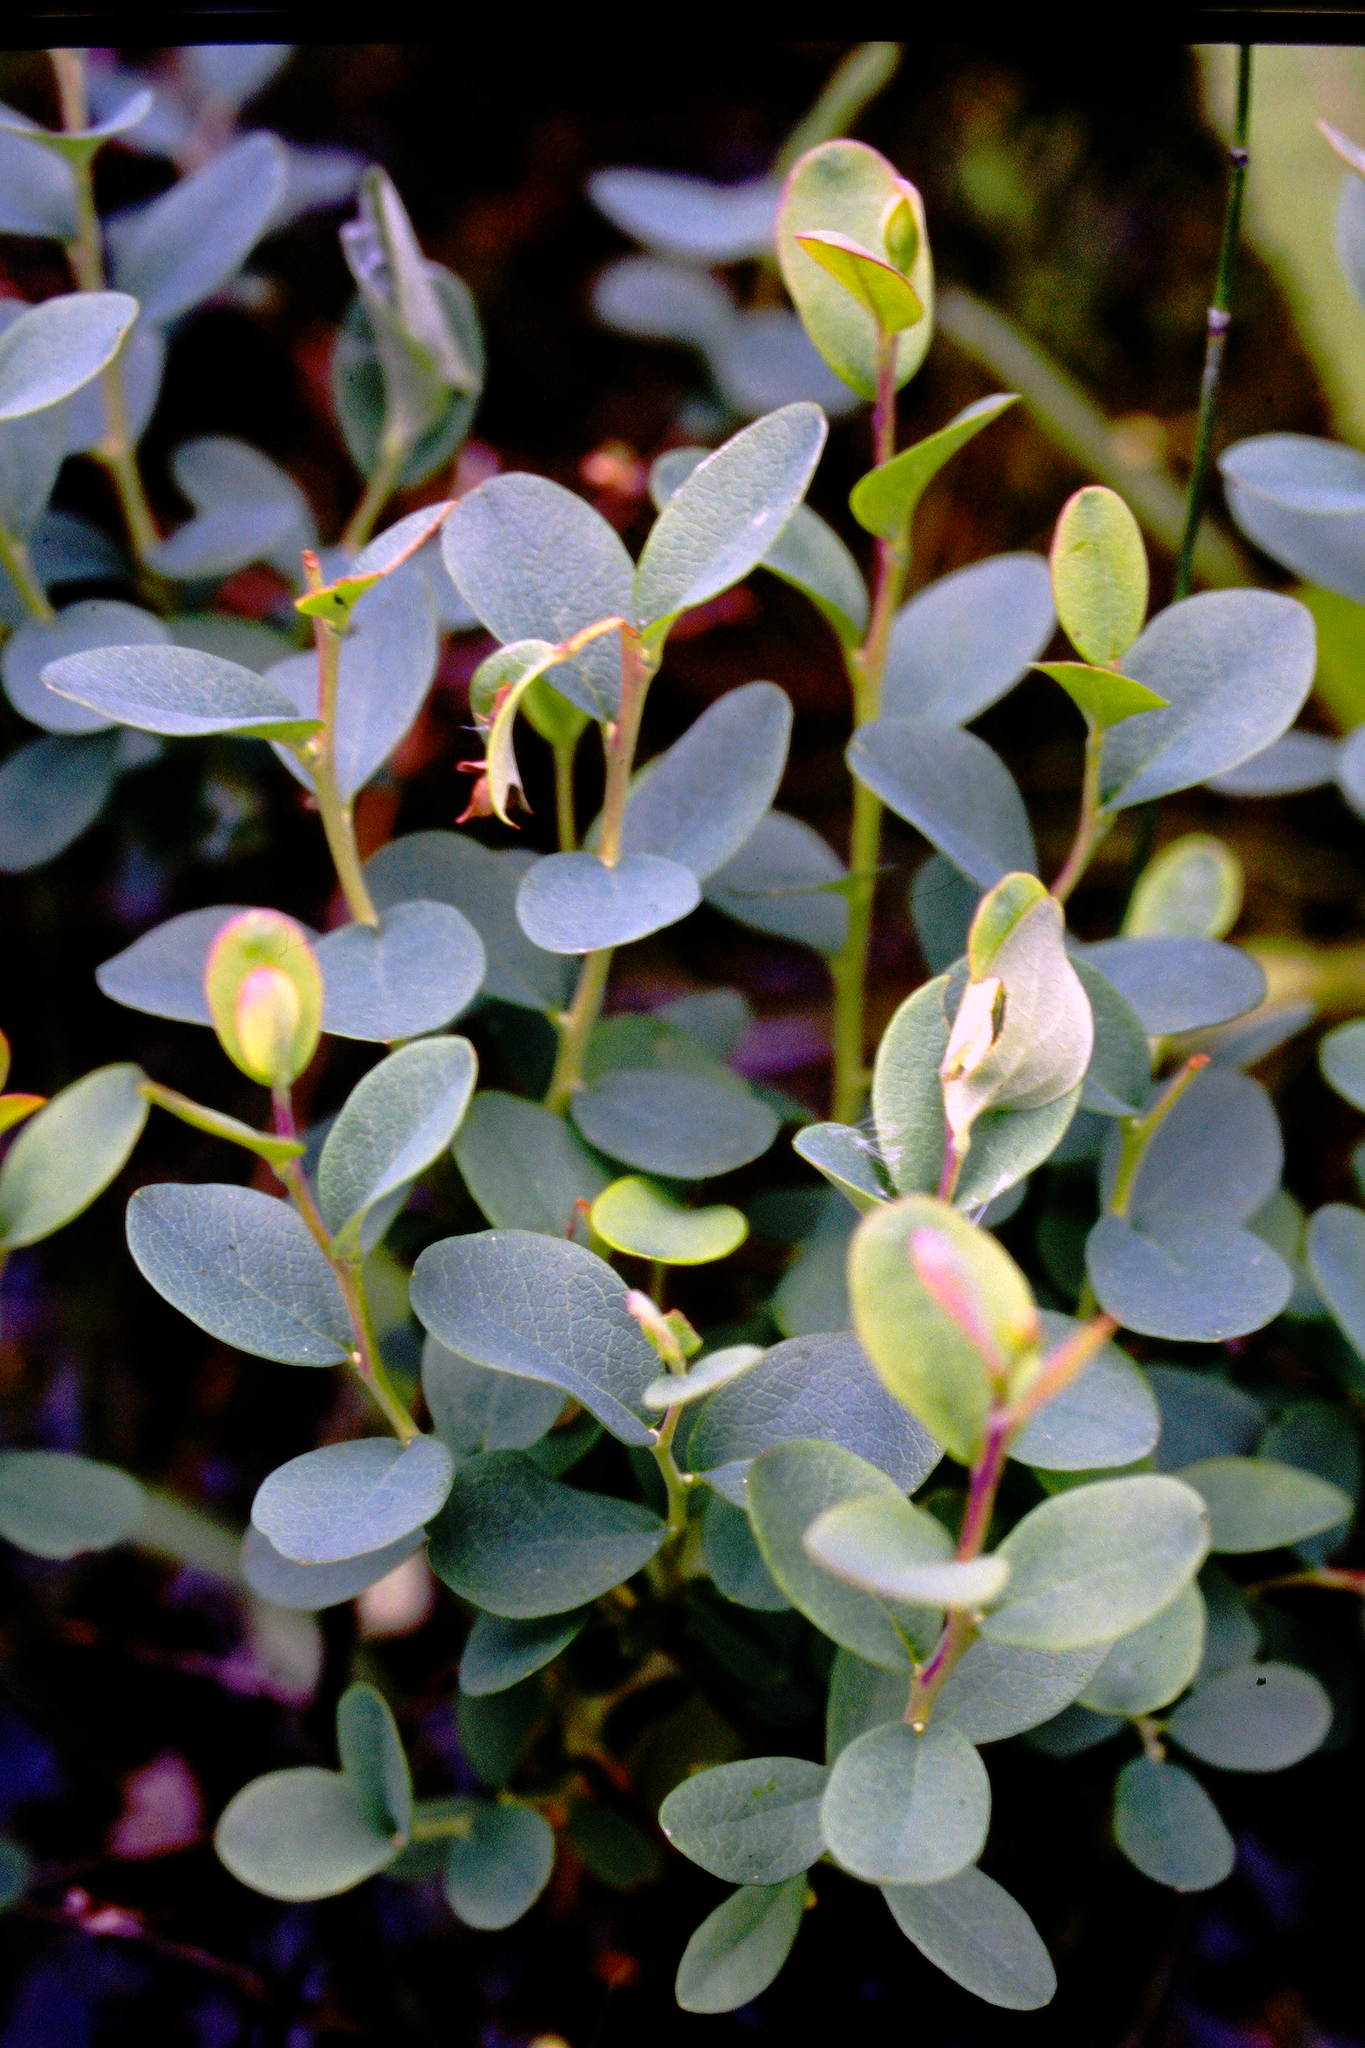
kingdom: Plantae
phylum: Tracheophyta
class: Magnoliopsida
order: Ericales
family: Ericaceae
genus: Vaccinium
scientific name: Vaccinium uliginosum
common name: Bog bilberry
